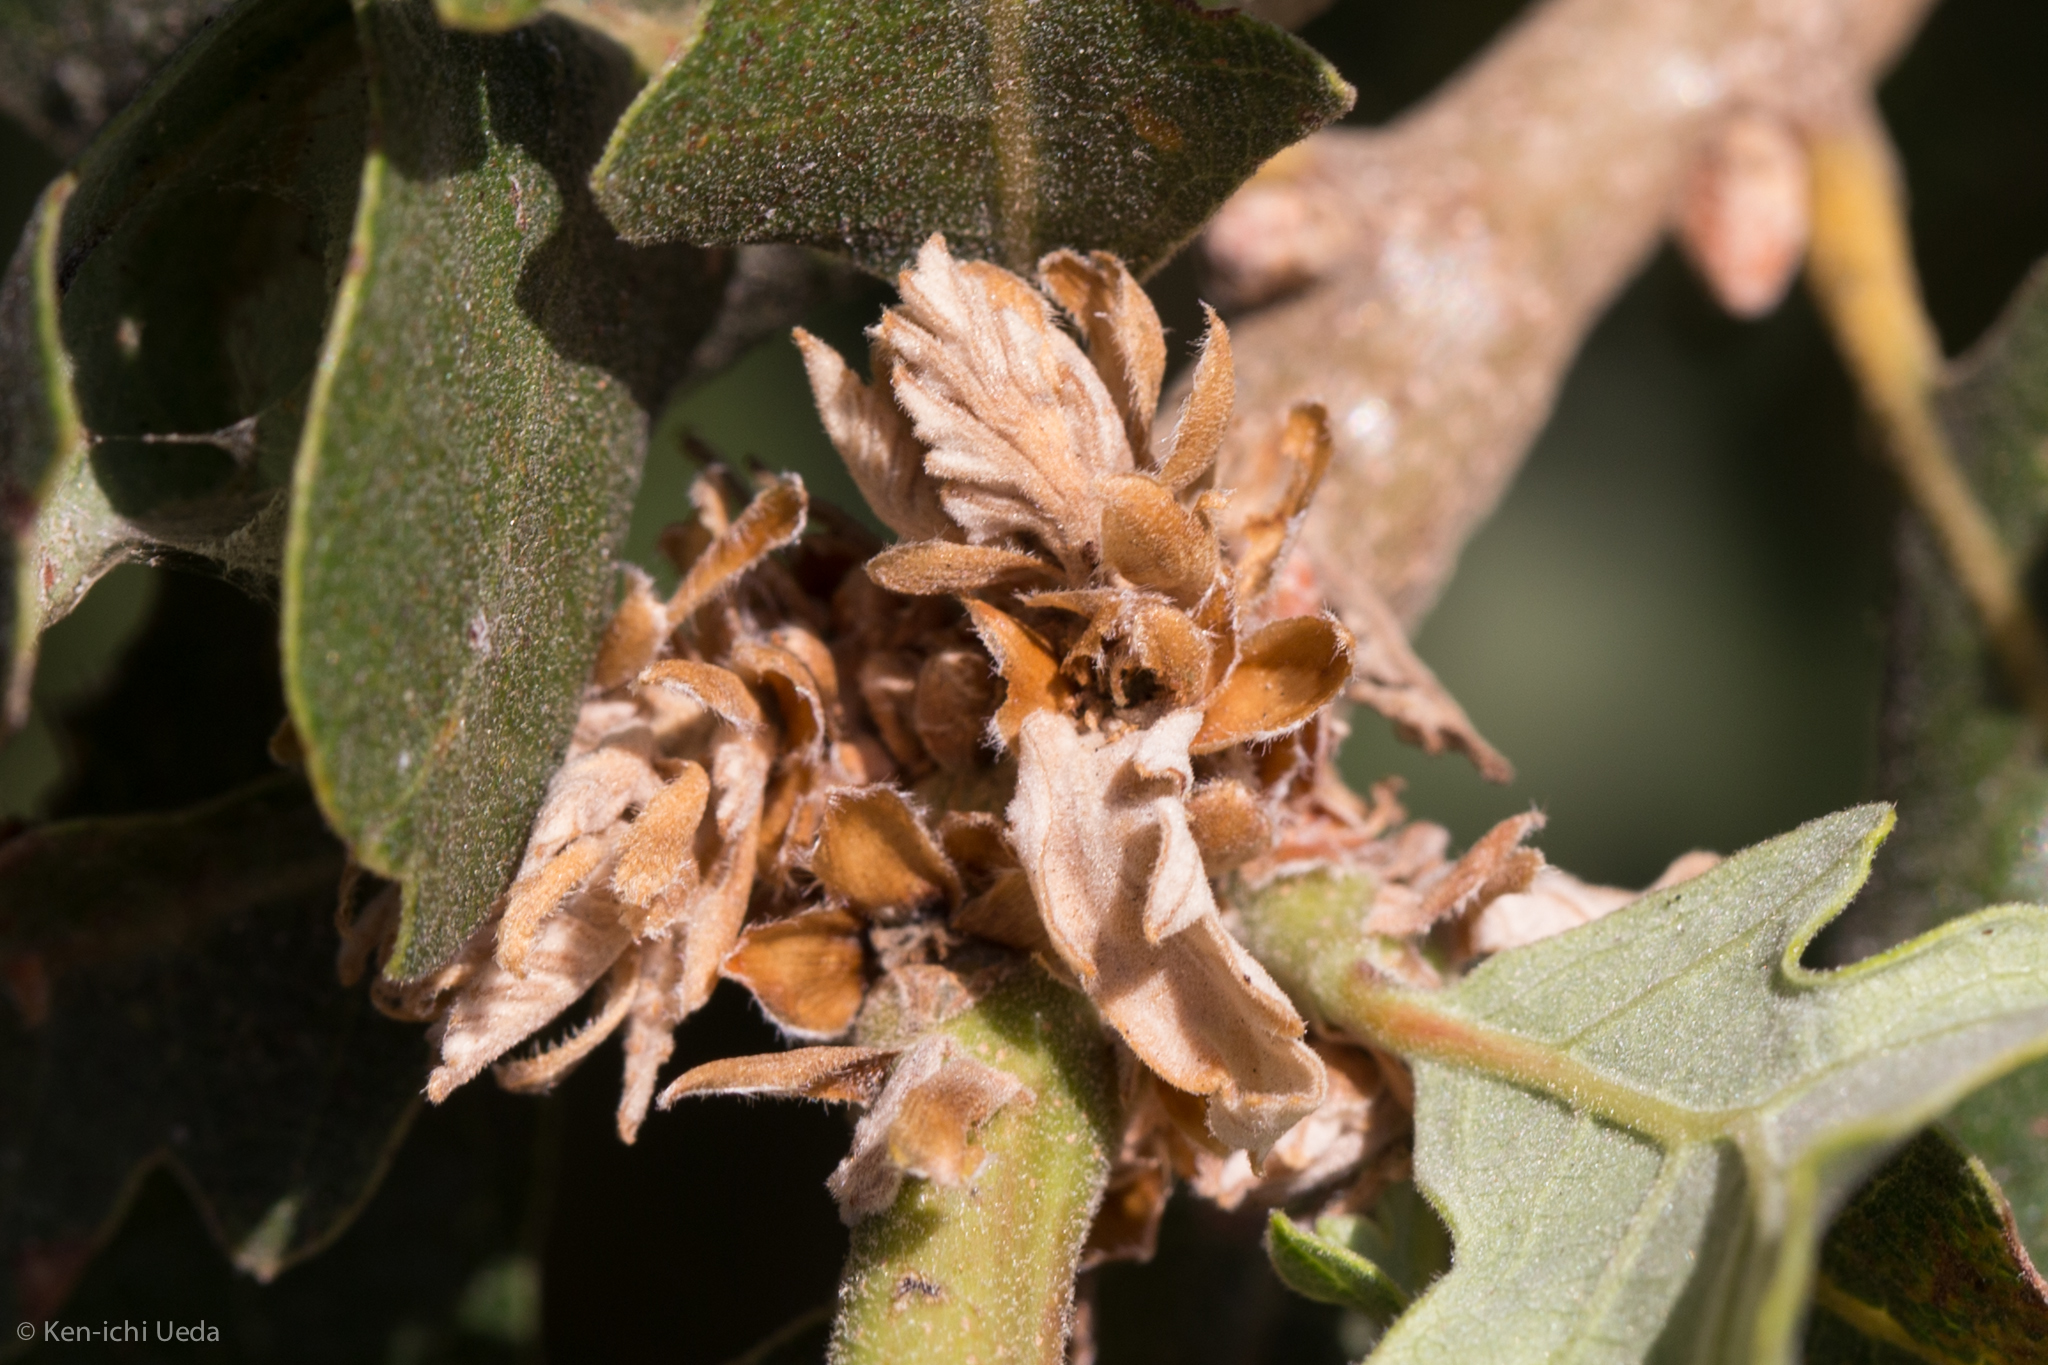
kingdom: Animalia
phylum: Arthropoda
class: Insecta
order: Hymenoptera
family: Cynipidae
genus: Andricus
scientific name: Andricus
